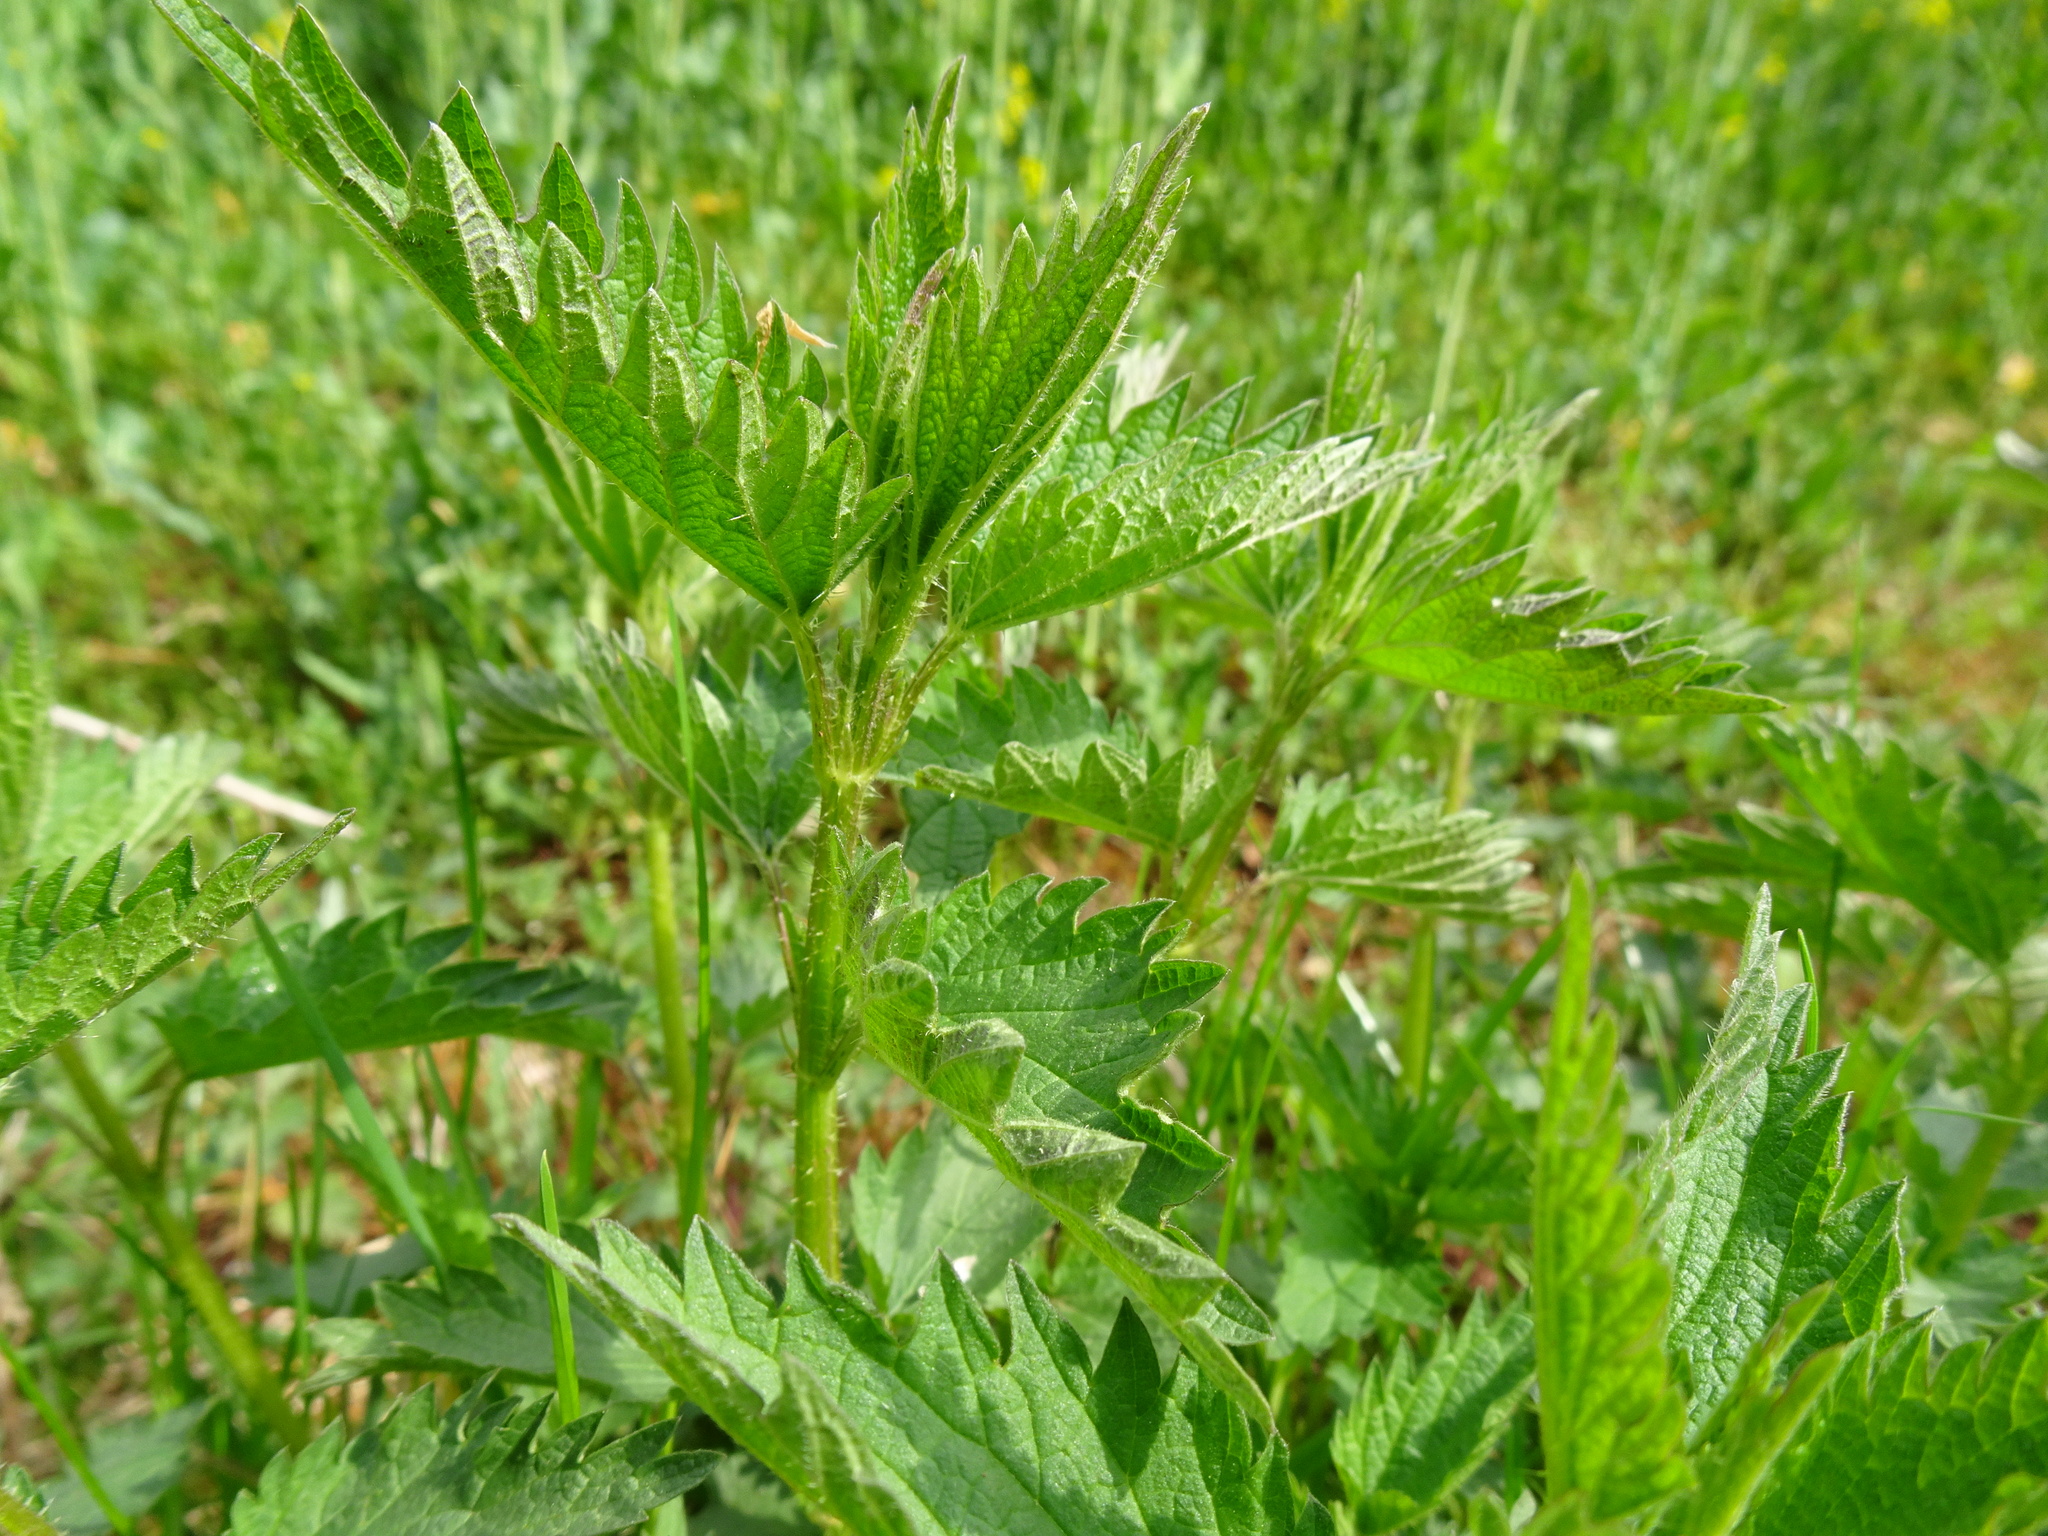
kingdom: Plantae
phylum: Tracheophyta
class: Magnoliopsida
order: Rosales
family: Urticaceae
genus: Urtica
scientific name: Urtica dioica
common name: Common nettle
